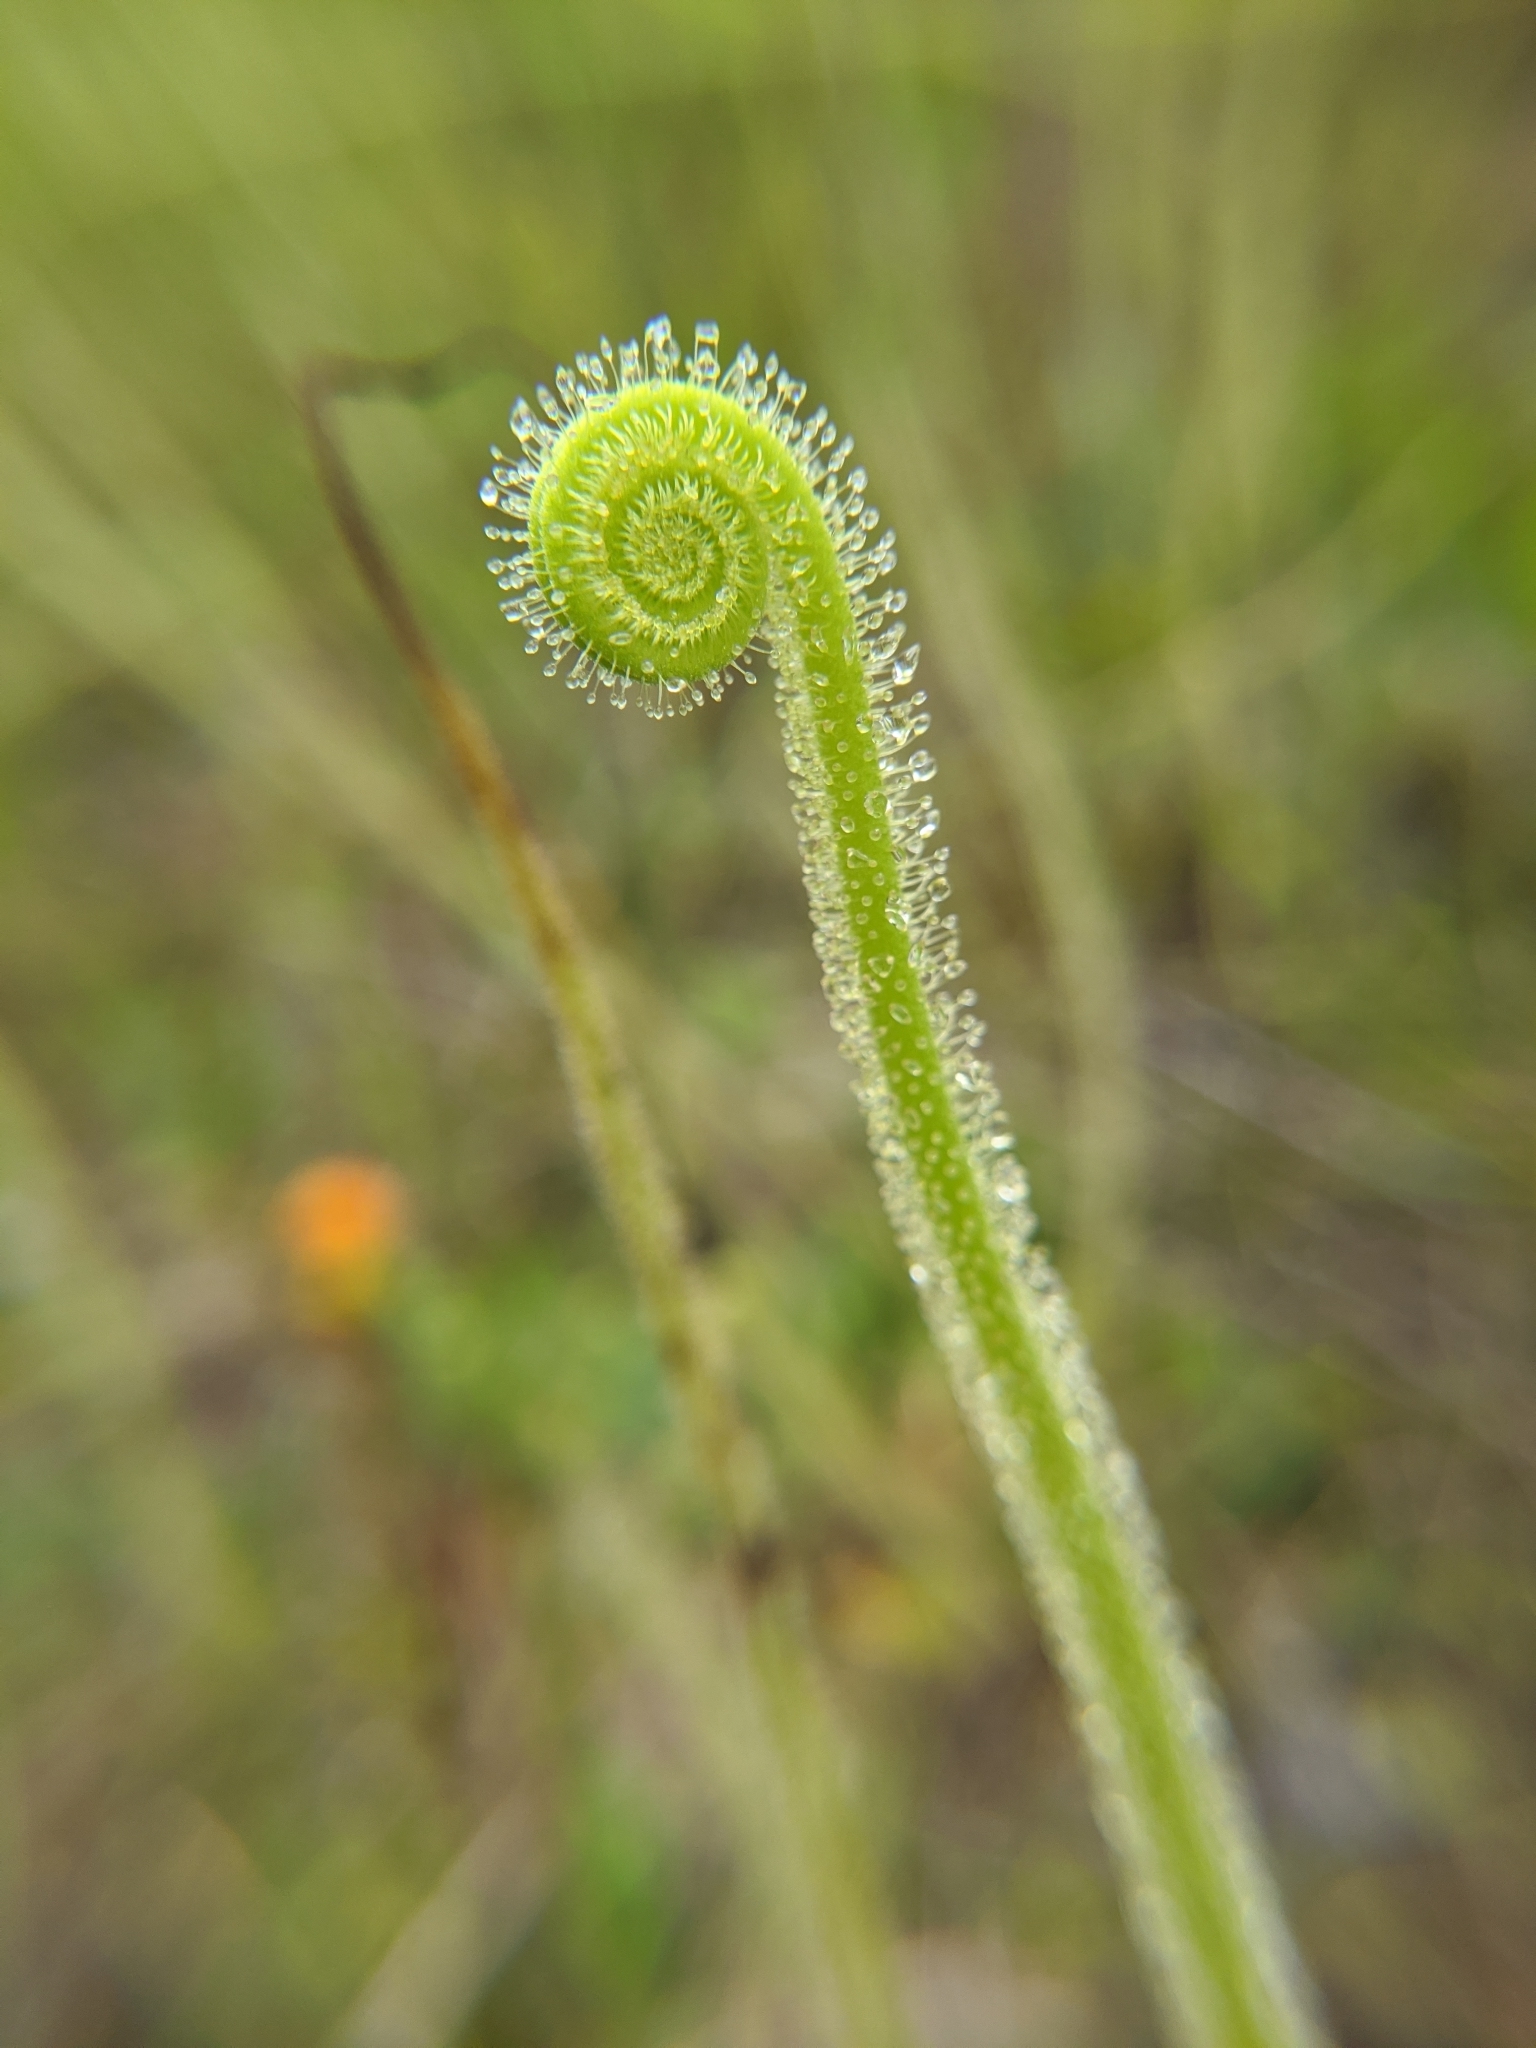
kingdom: Plantae
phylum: Tracheophyta
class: Magnoliopsida
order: Caryophyllales
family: Droseraceae
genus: Drosera
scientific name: Drosera filiformis
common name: Dew-thread
